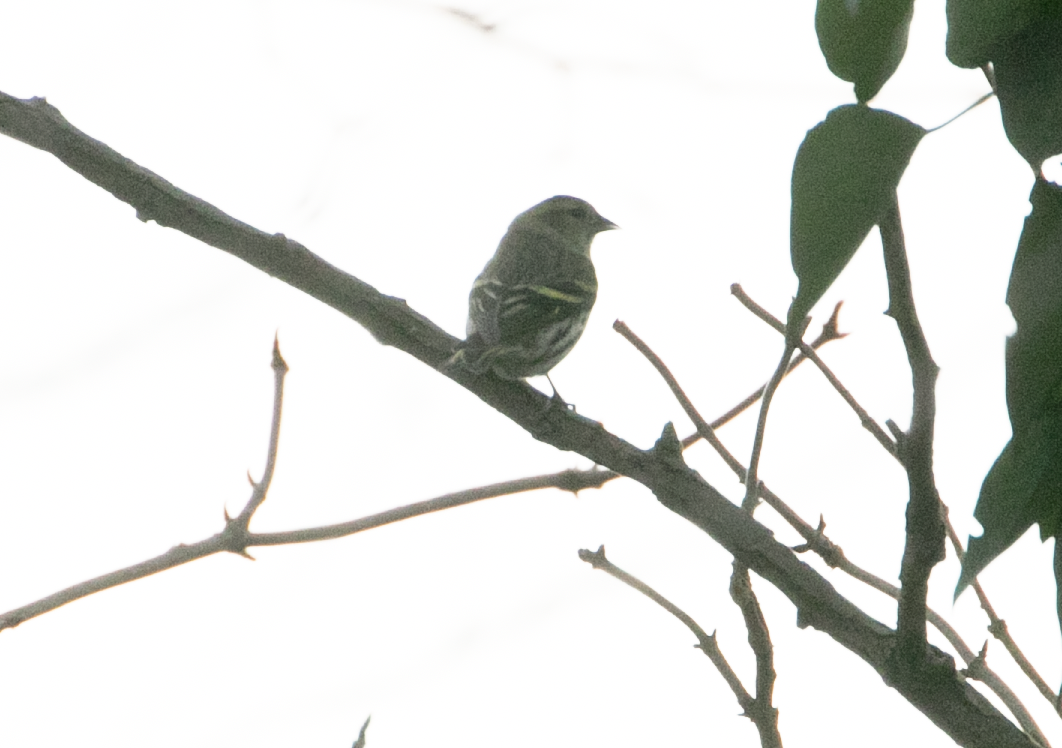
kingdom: Animalia
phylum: Chordata
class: Aves
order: Passeriformes
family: Fringillidae
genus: Spinus
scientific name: Spinus spinus
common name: Eurasian siskin
